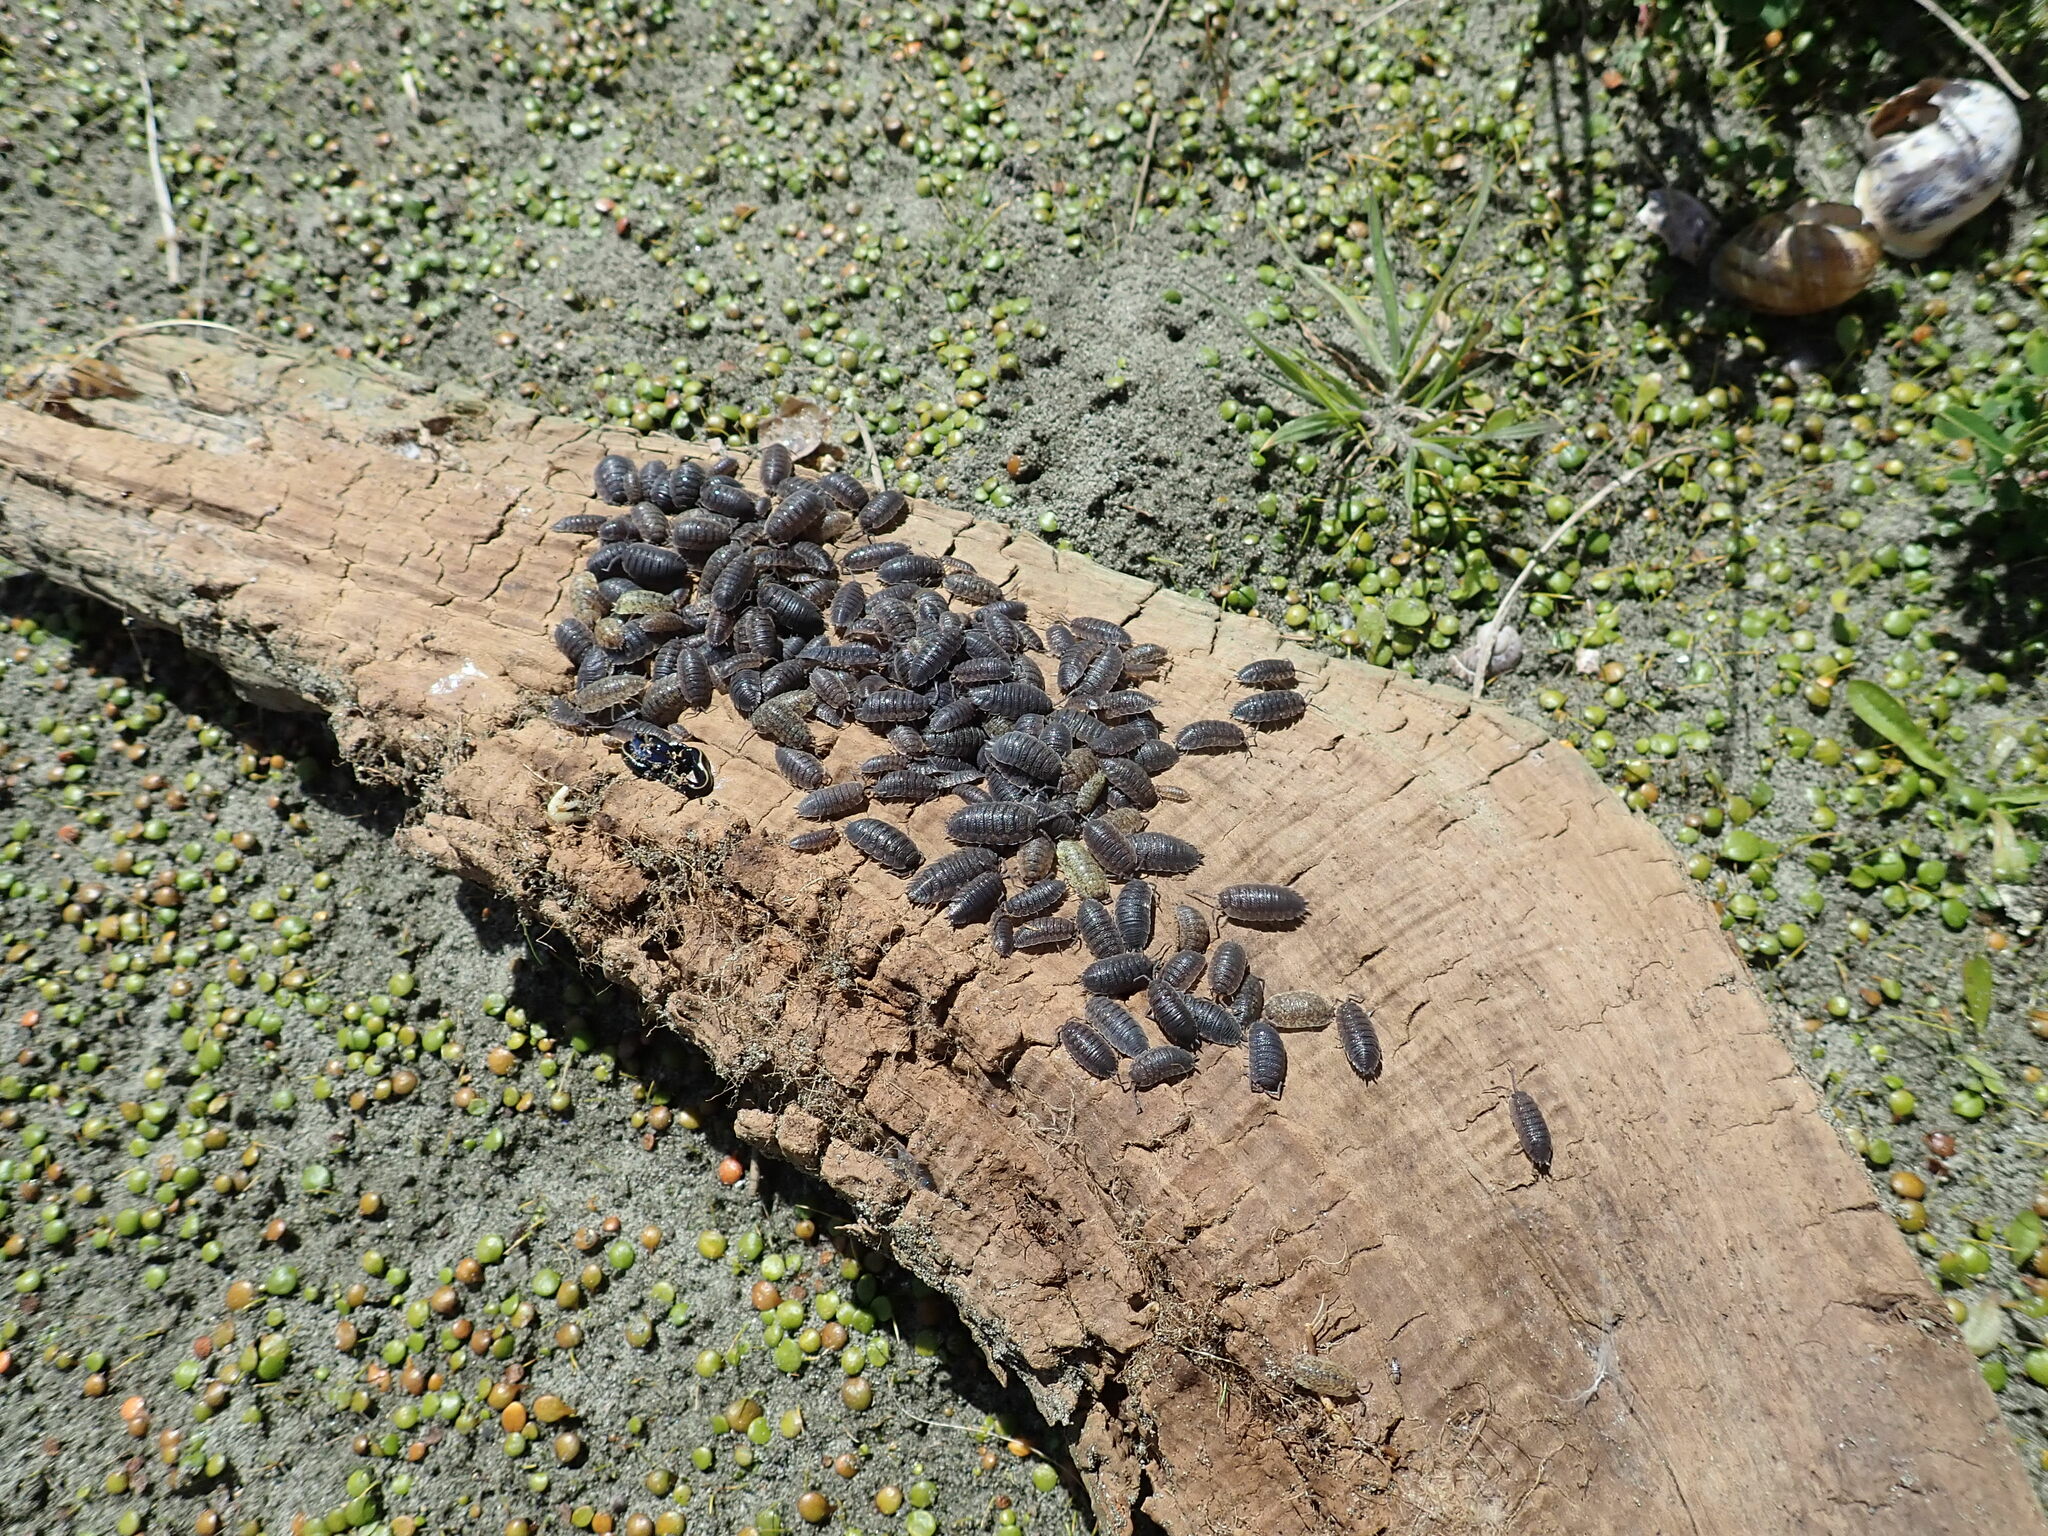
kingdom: Animalia
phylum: Arthropoda
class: Malacostraca
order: Isopoda
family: Porcellionidae
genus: Porcellio
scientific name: Porcellio scaber
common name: Common rough woodlouse
